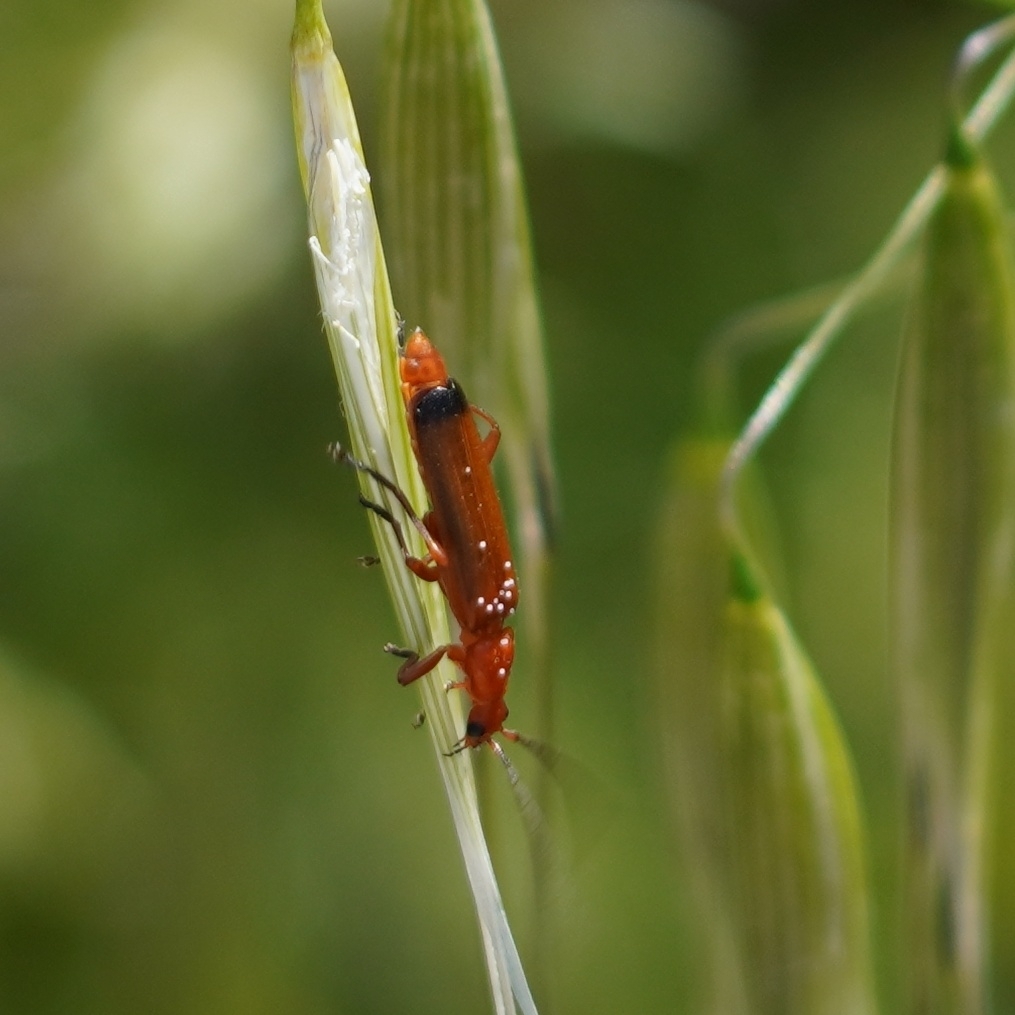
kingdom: Animalia
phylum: Arthropoda
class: Insecta
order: Coleoptera
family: Cantharidae
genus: Rhagonycha
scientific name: Rhagonycha fulva
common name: Common red soldier beetle
